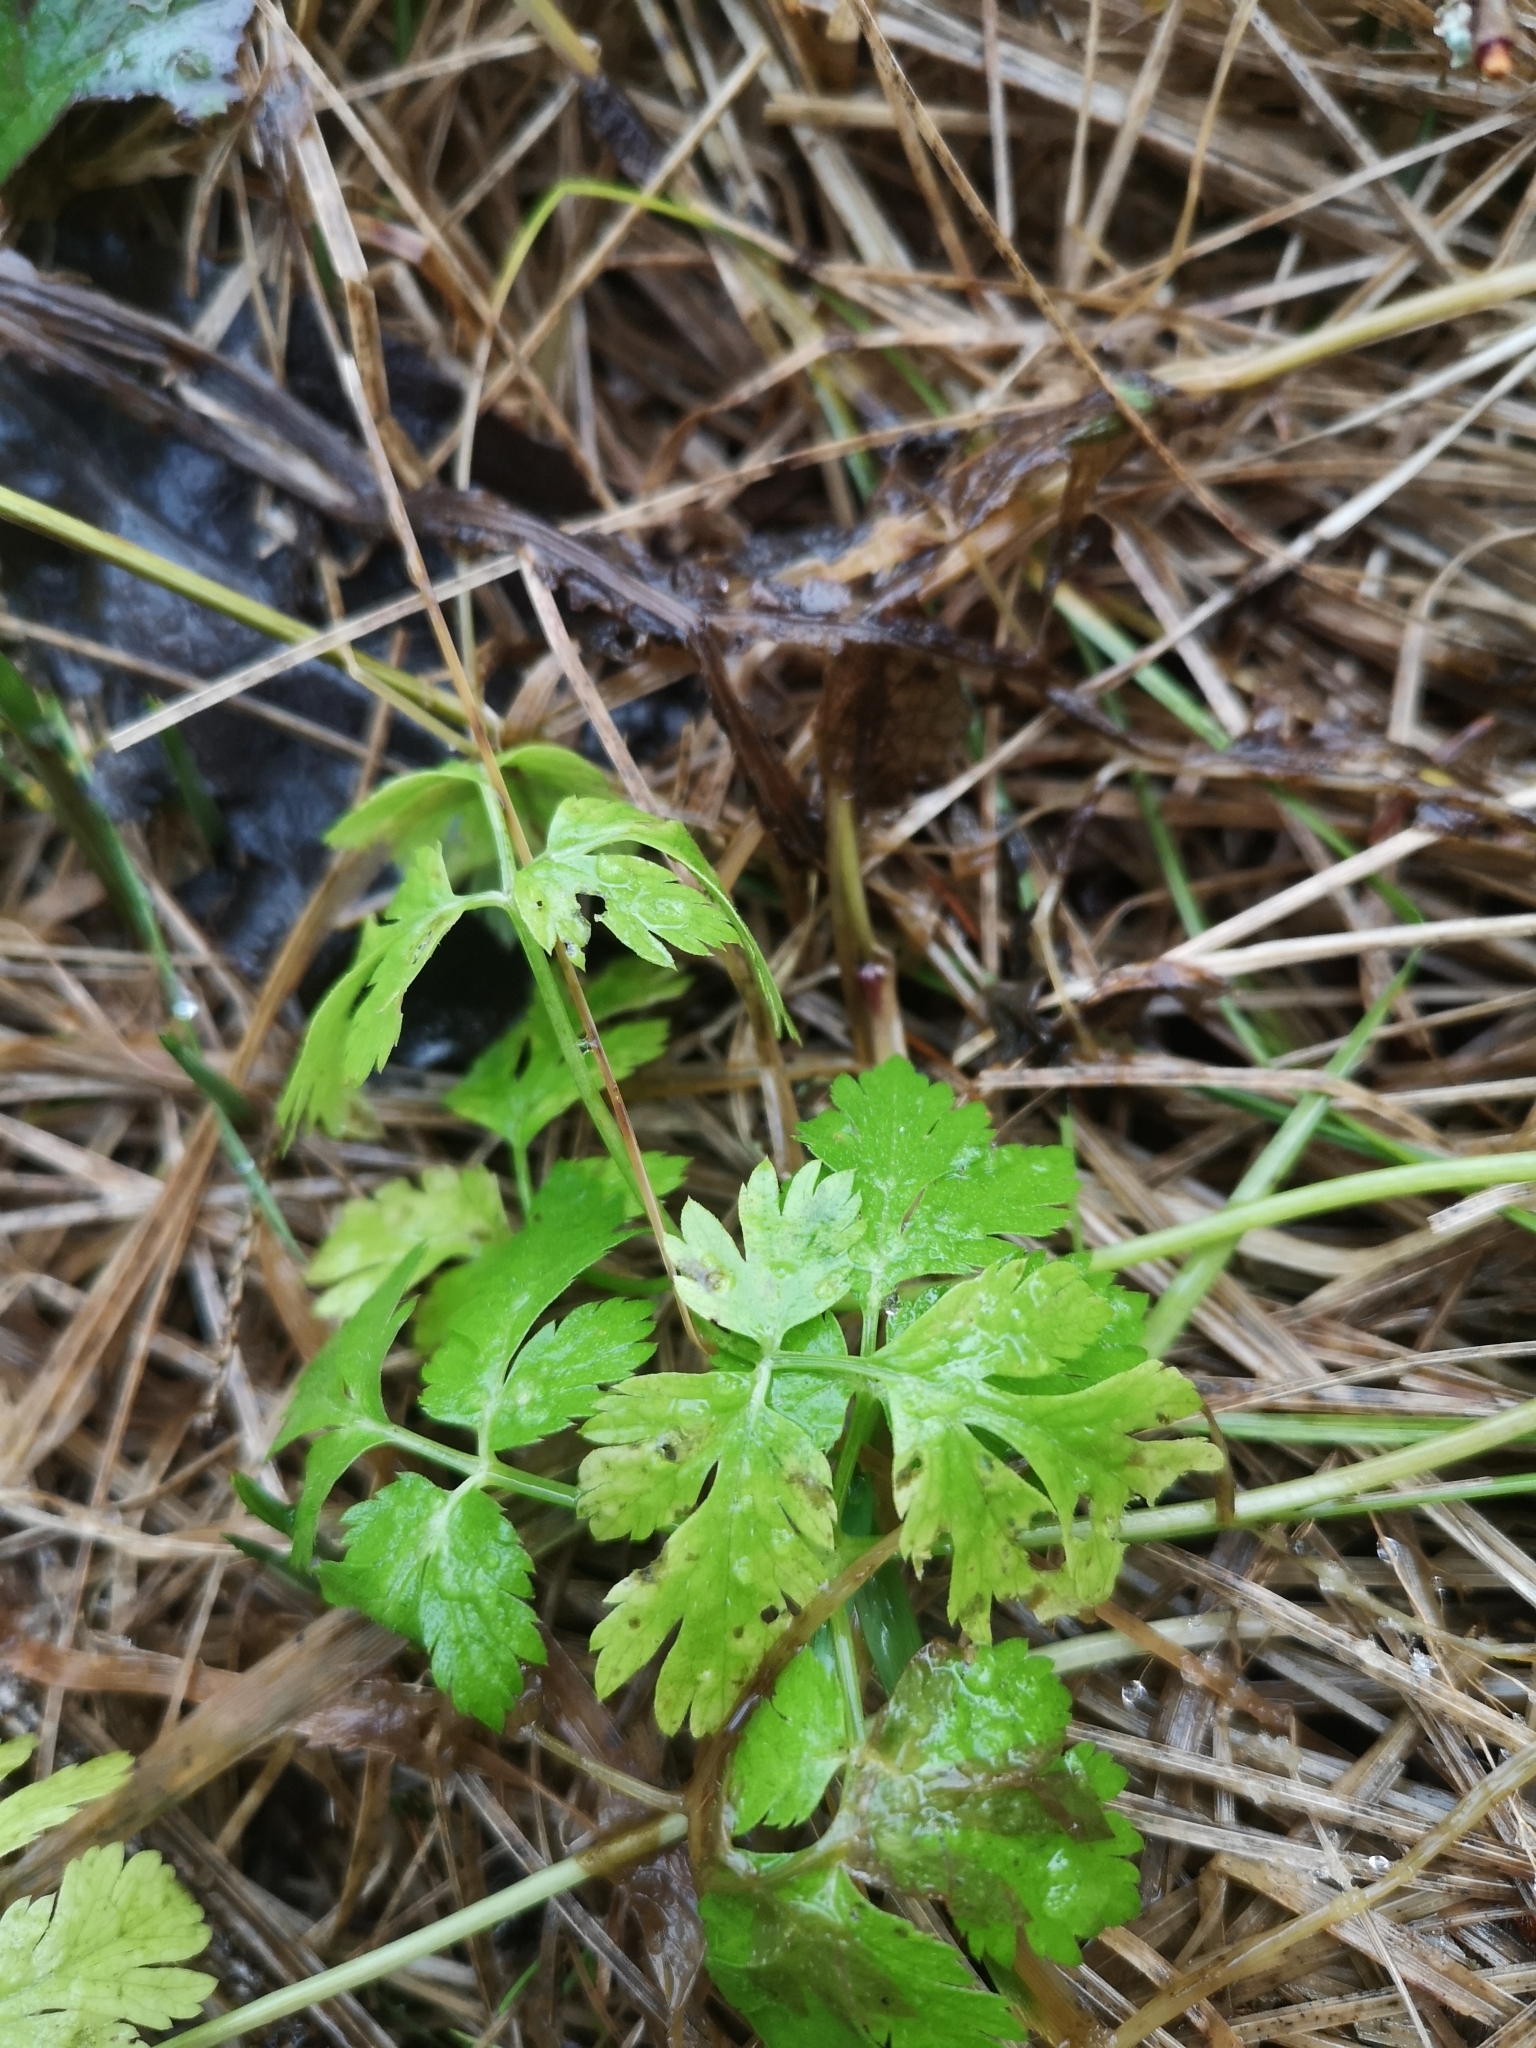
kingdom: Plantae
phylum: Tracheophyta
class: Magnoliopsida
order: Geraniales
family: Geraniaceae
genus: Geranium
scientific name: Geranium robertianum
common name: Herb-robert
